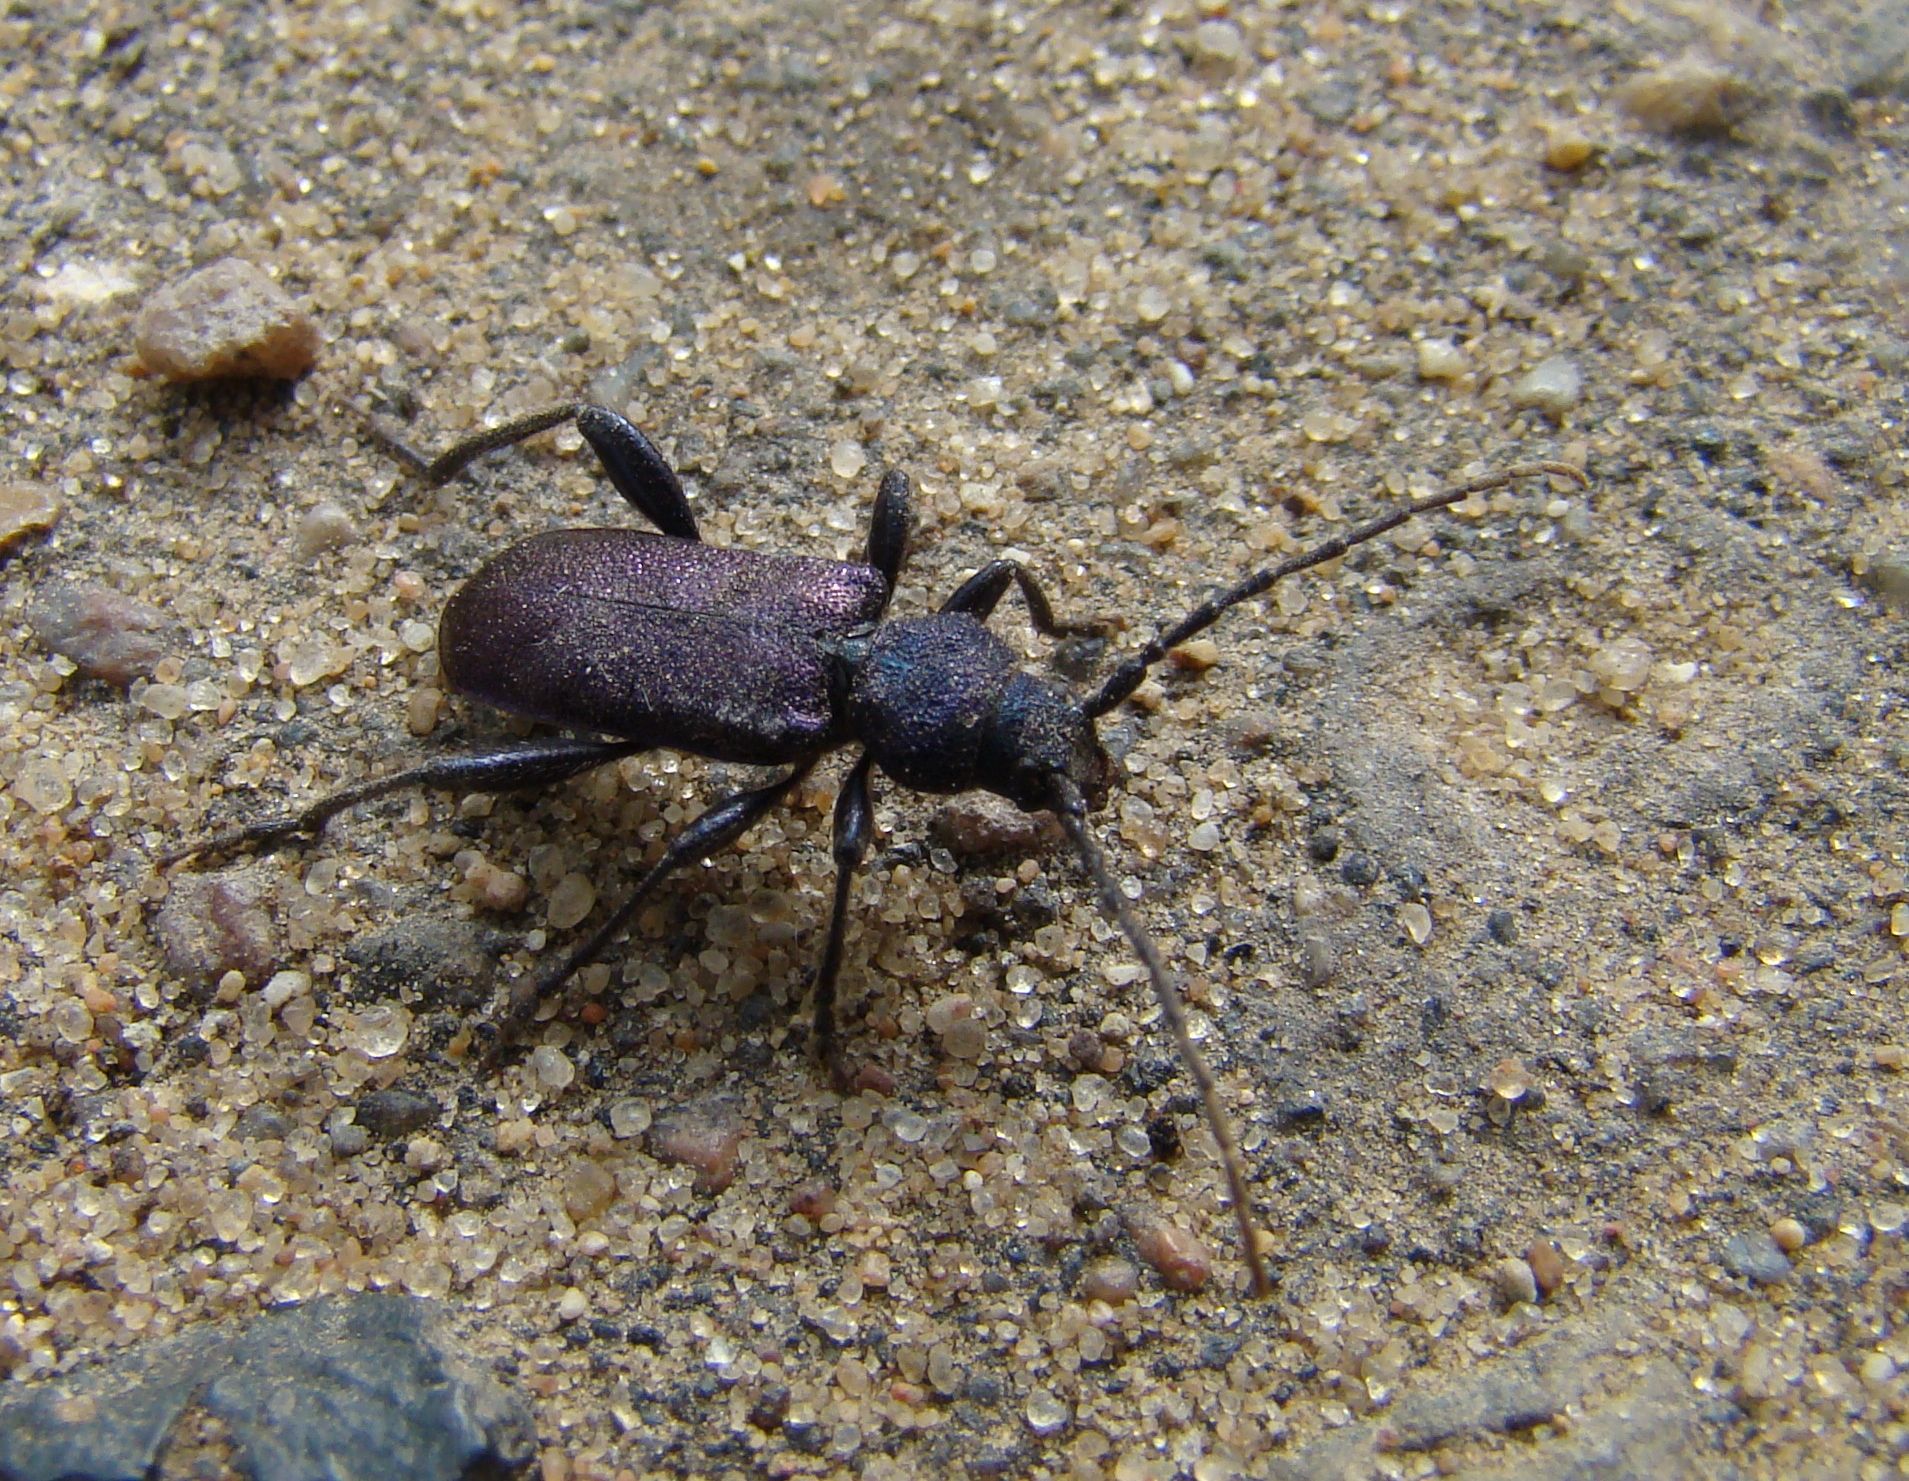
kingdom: Animalia
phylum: Arthropoda
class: Insecta
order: Coleoptera
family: Cerambycidae
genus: Callidium
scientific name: Callidium violaceum
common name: Violet tanbark beetle
